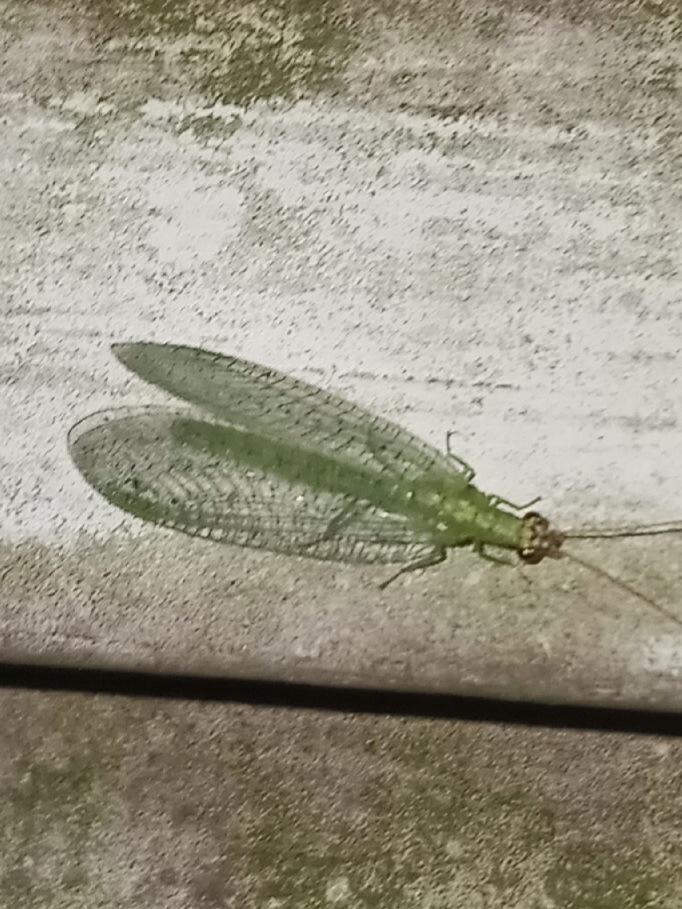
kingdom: Animalia
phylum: Arthropoda
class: Insecta
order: Neuroptera
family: Chrysopidae
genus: Chrysopa
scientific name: Chrysopa oculata
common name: Golden-eyed lacewing
